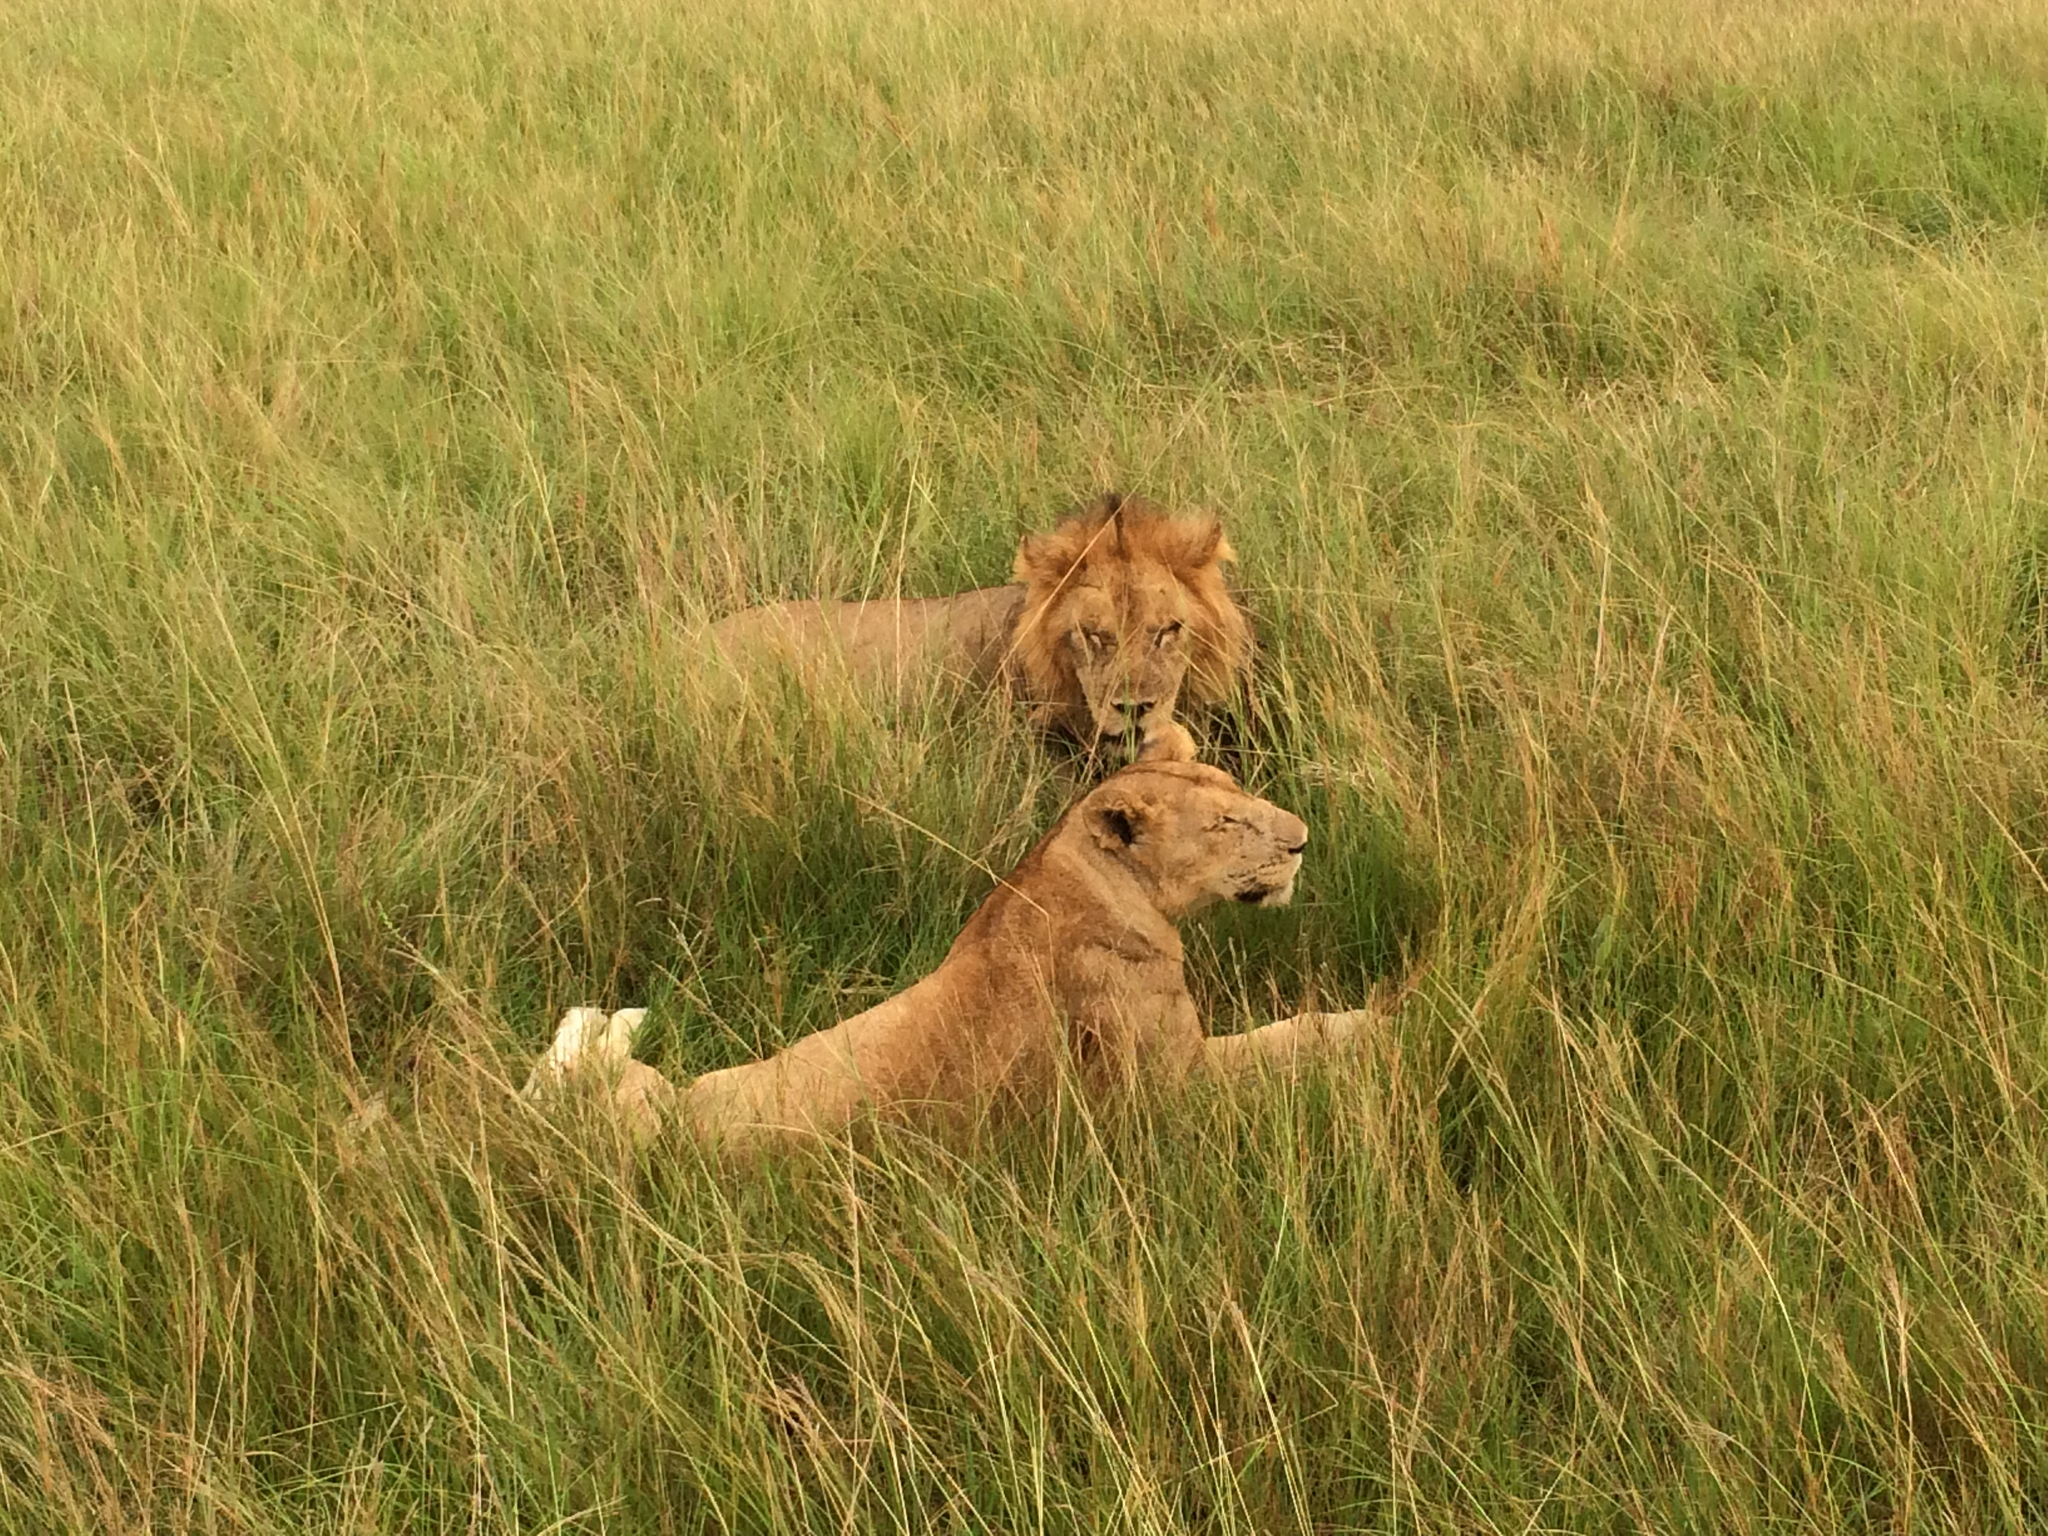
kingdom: Animalia
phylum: Chordata
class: Mammalia
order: Carnivora
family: Felidae
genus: Panthera
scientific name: Panthera leo
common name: Lion
